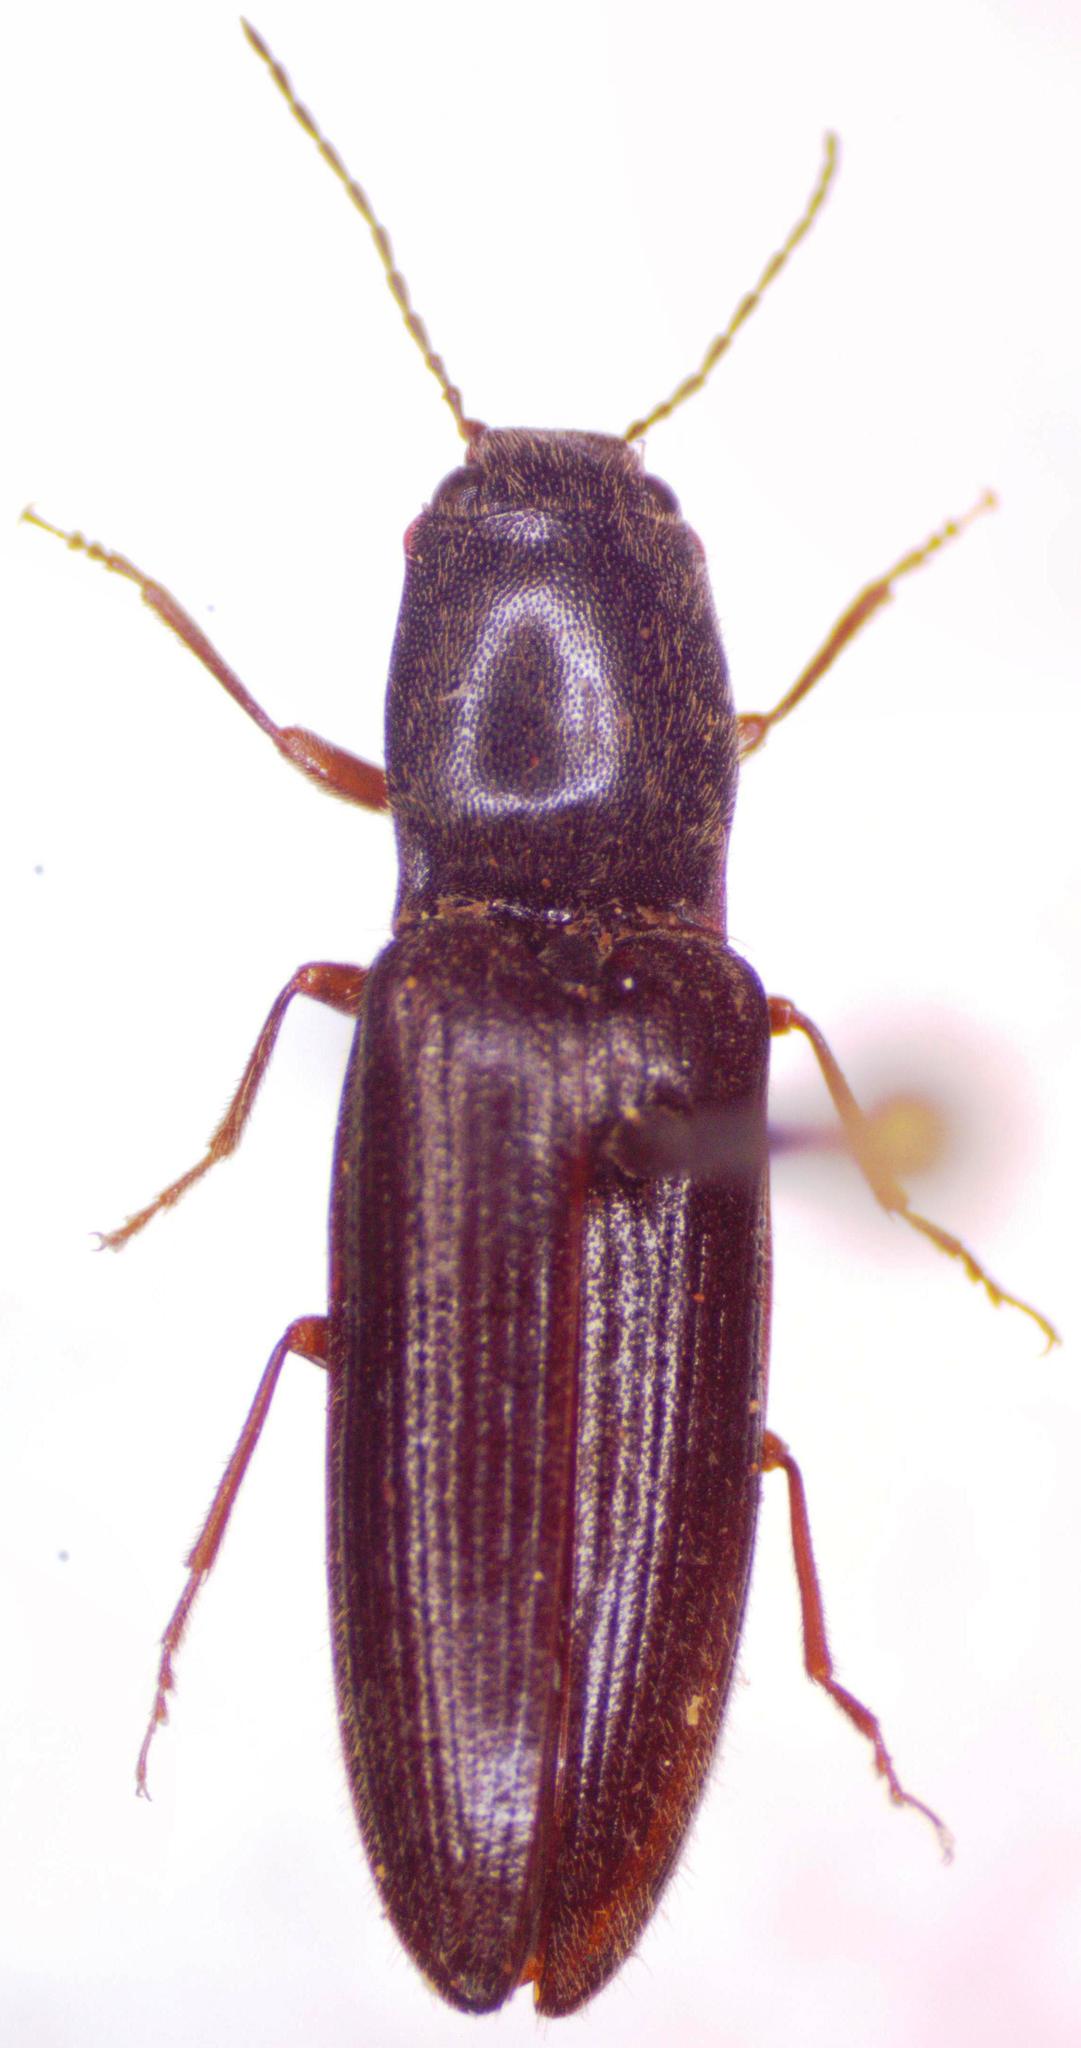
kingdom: Animalia
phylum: Arthropoda
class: Insecta
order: Coleoptera
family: Elateridae
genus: Athous
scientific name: Athous haemorrhoidalis
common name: Red-brown click beetle
